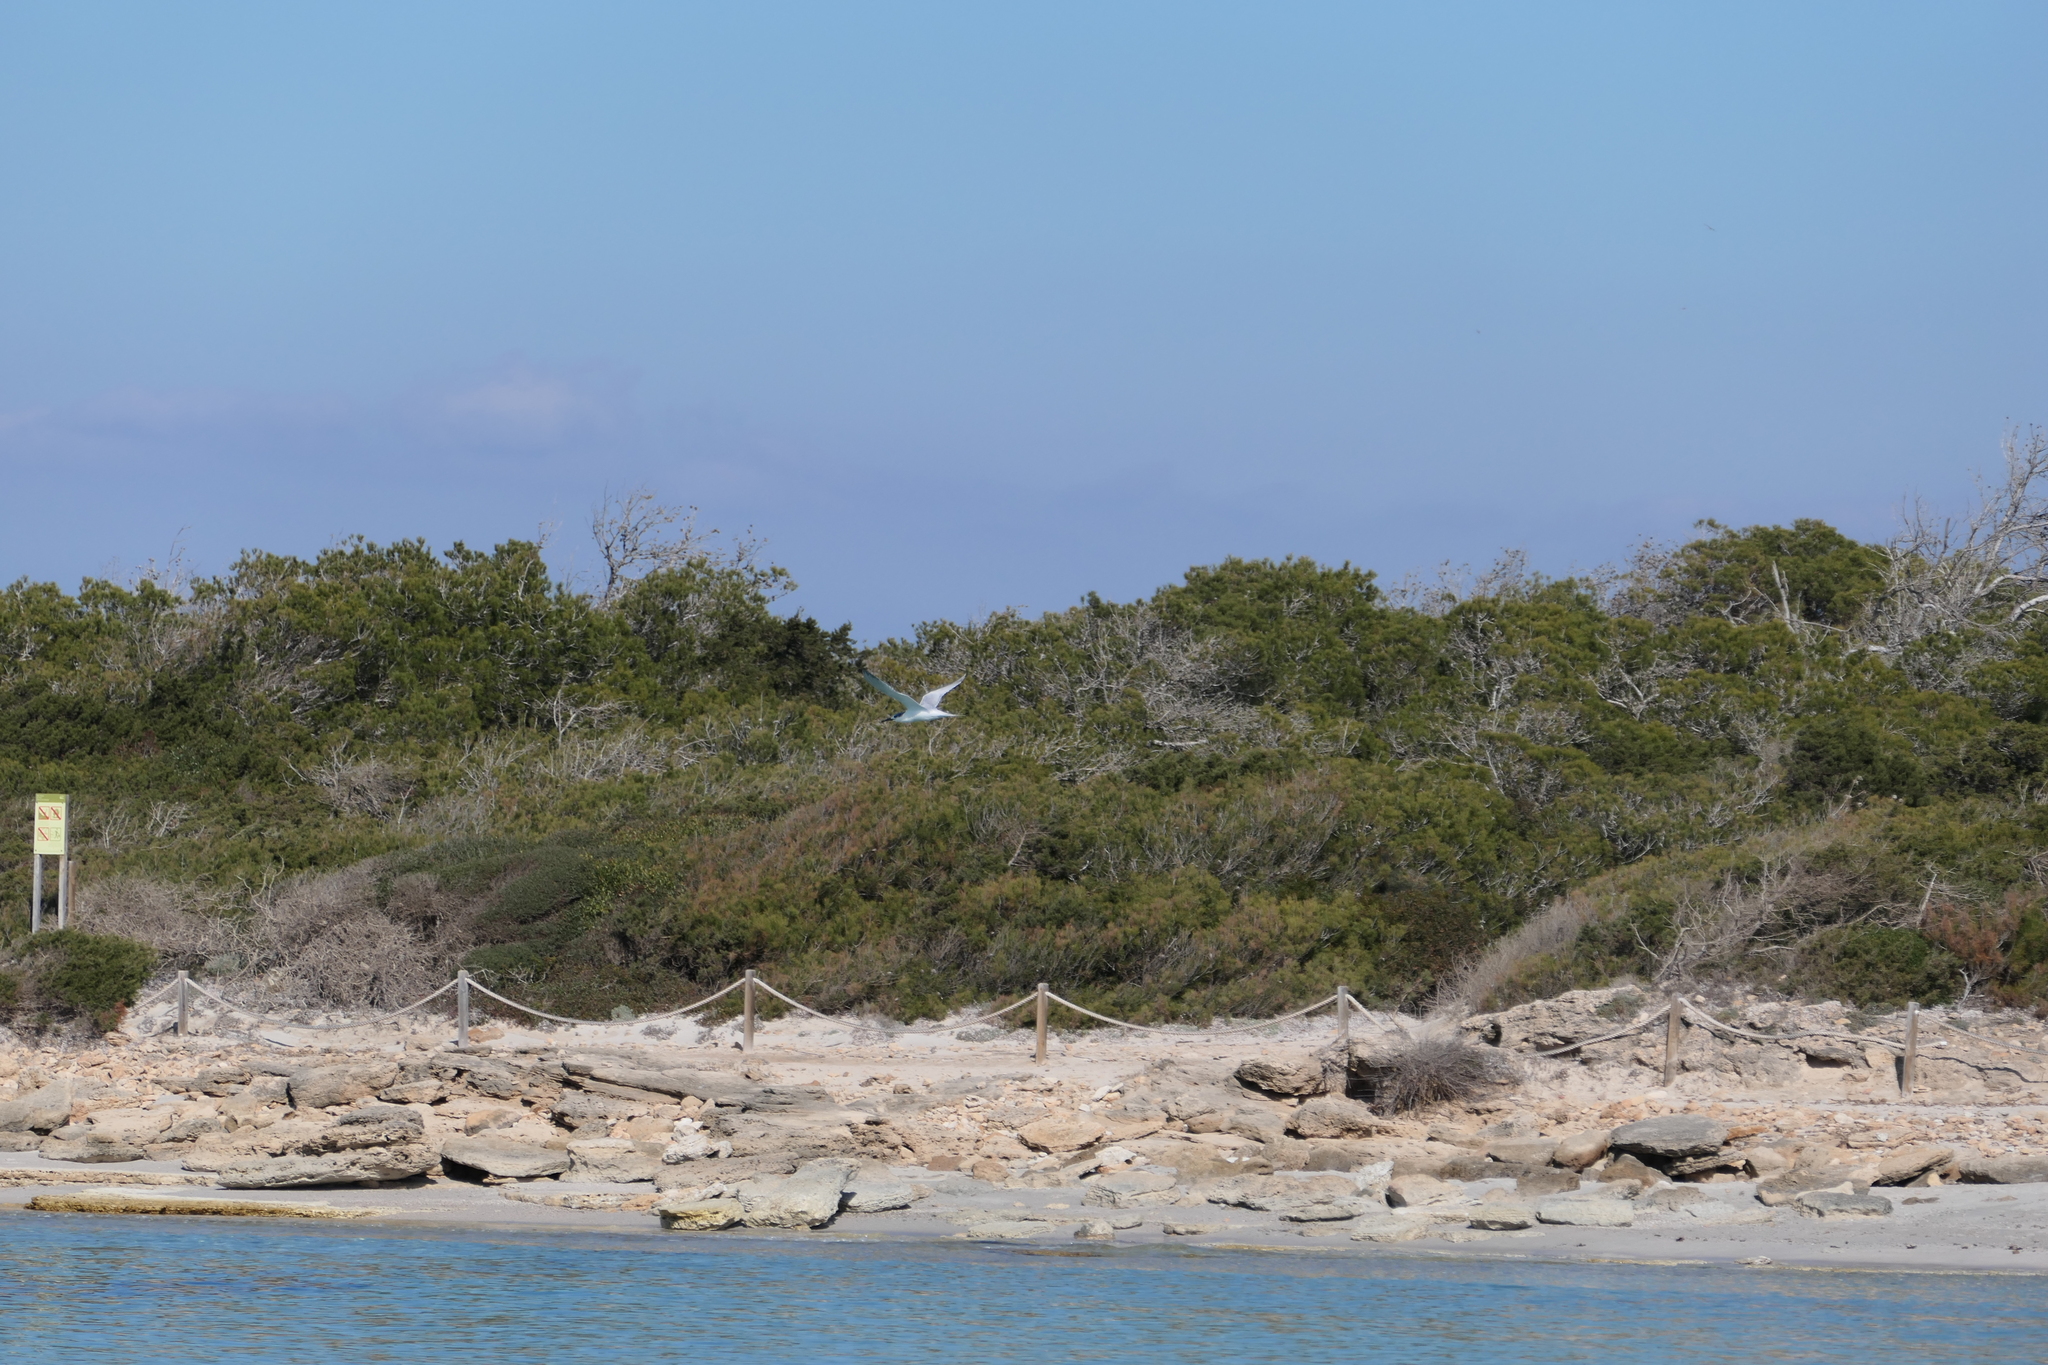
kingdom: Animalia
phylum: Chordata
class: Aves
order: Charadriiformes
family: Laridae
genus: Thalasseus
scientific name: Thalasseus sandvicensis
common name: Sandwich tern
